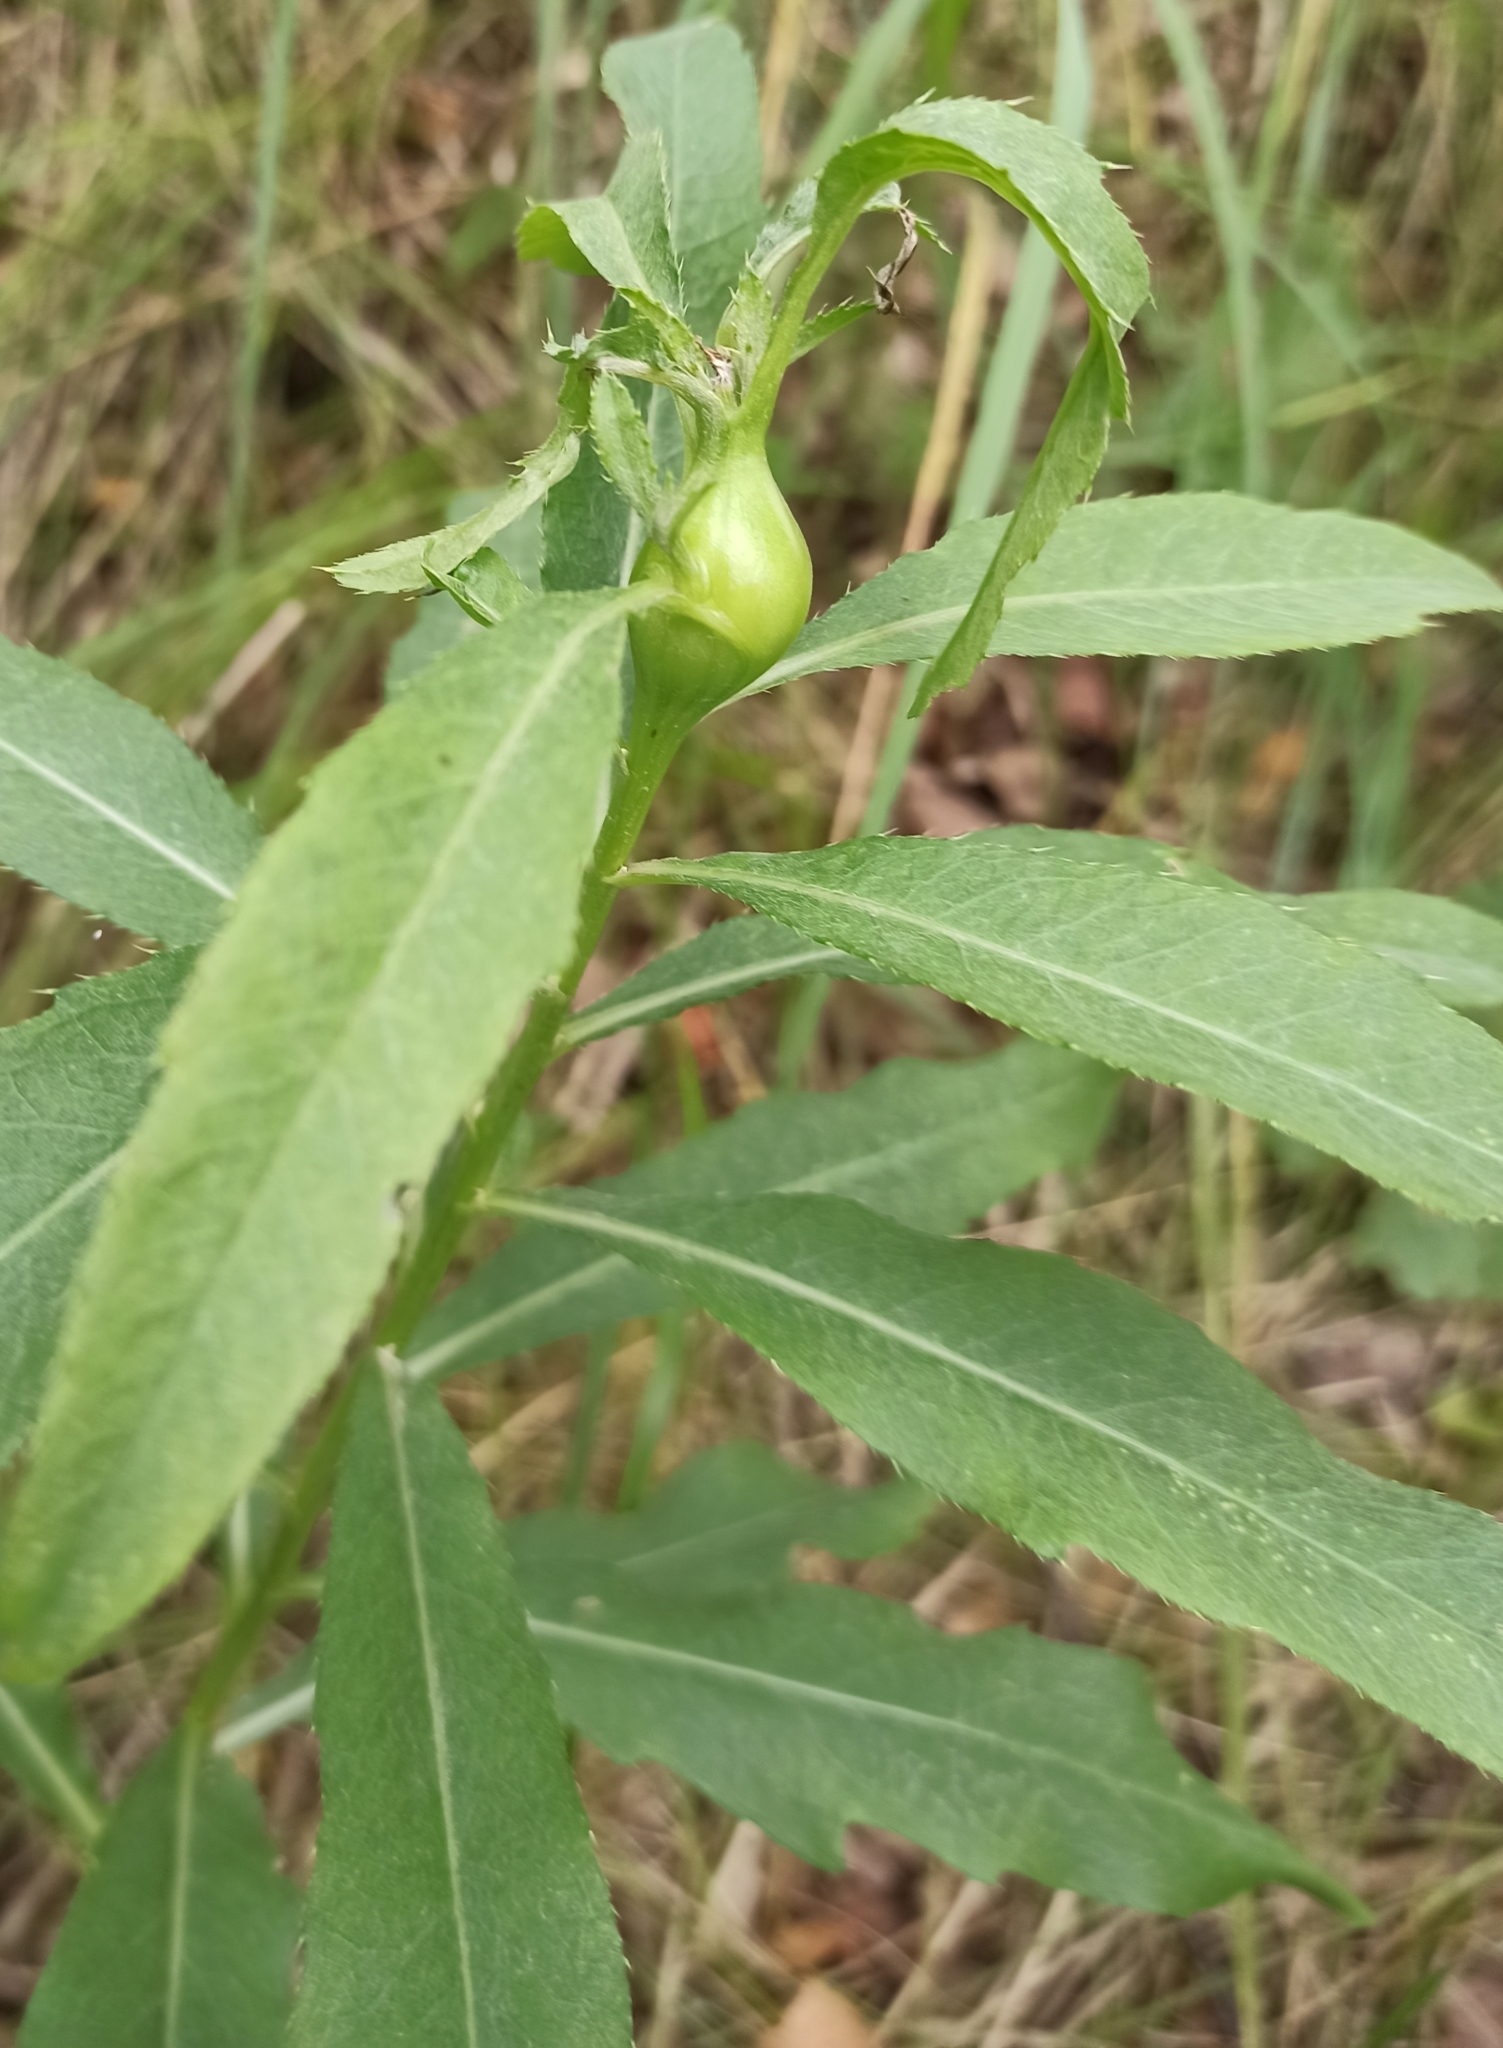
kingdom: Plantae
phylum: Tracheophyta
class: Magnoliopsida
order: Asterales
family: Asteraceae
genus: Cirsium
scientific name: Cirsium arvense
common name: Creeping thistle
